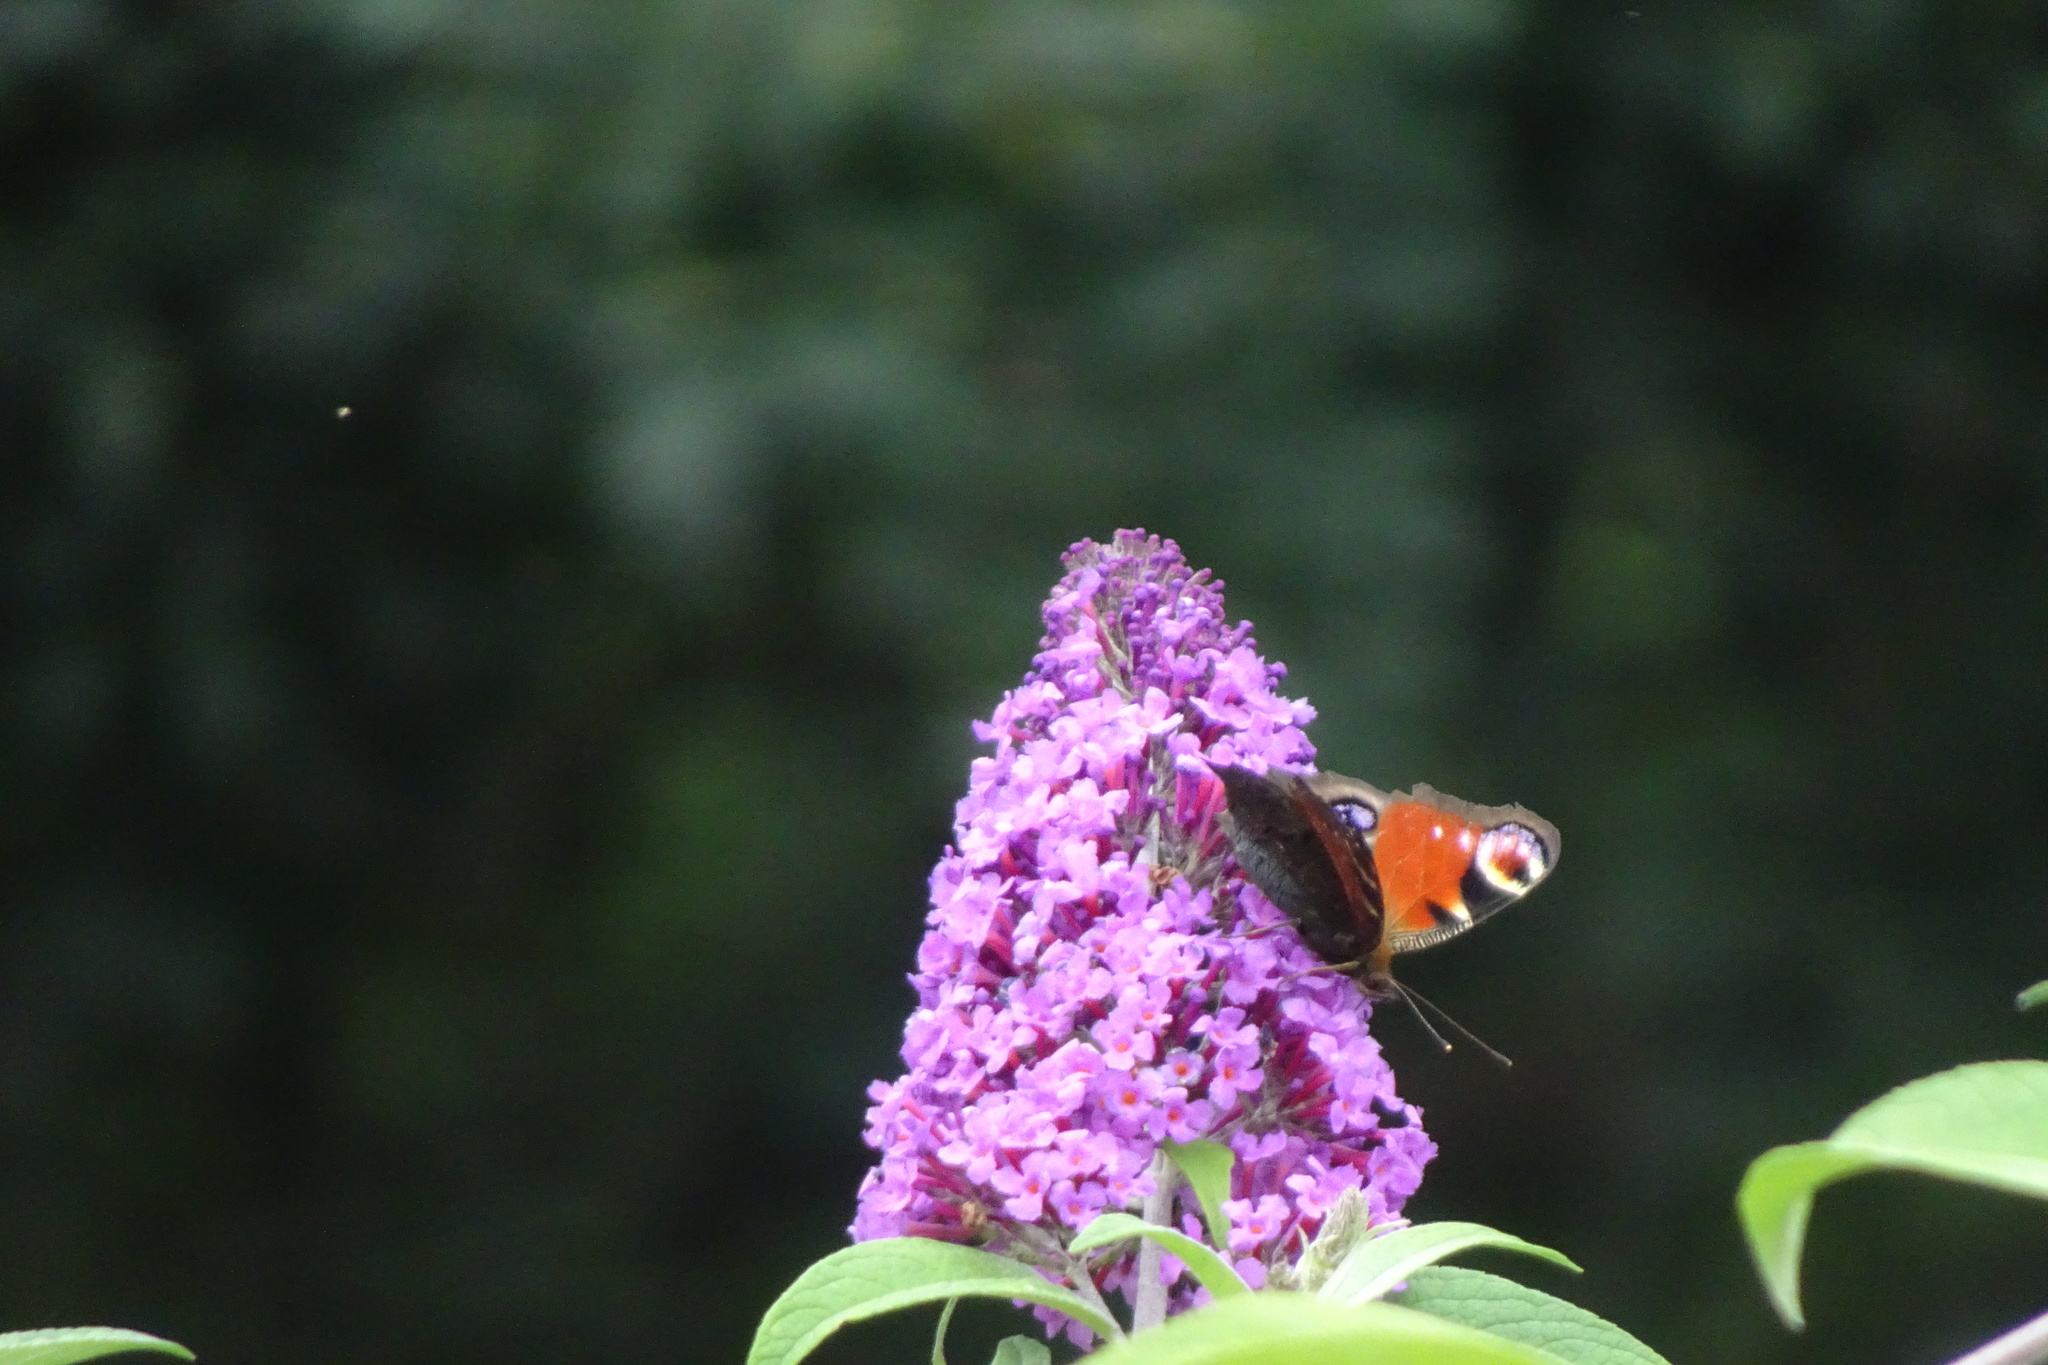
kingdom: Animalia
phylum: Arthropoda
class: Insecta
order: Lepidoptera
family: Nymphalidae
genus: Aglais
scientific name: Aglais io
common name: Peacock
